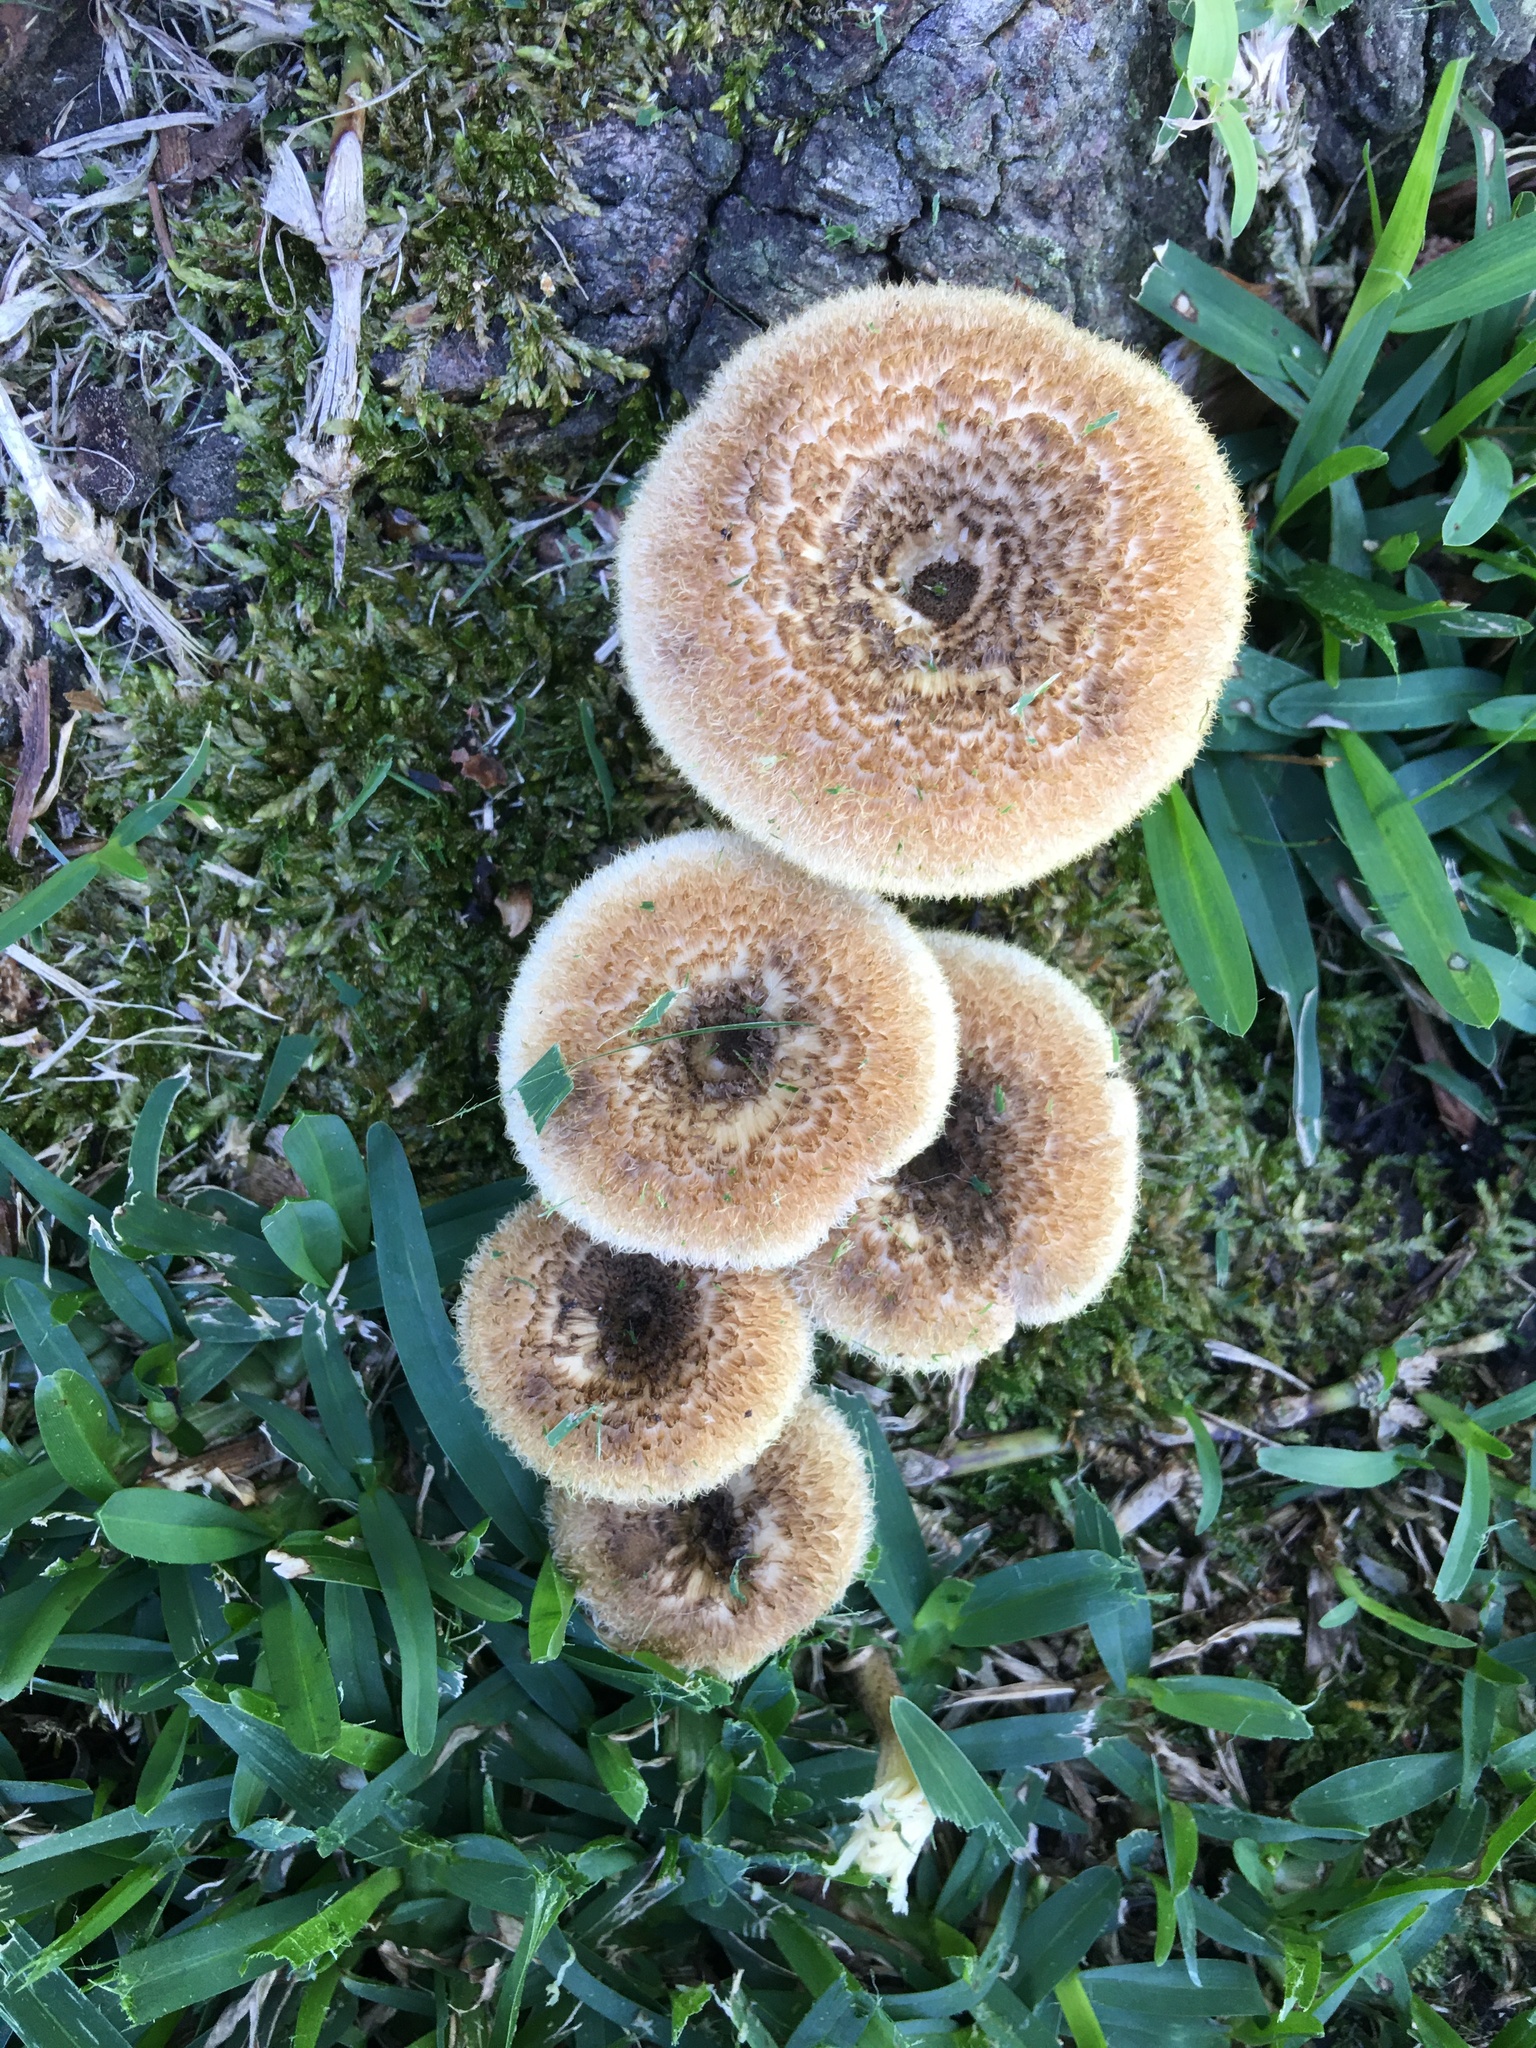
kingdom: Fungi
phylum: Basidiomycota
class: Agaricomycetes
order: Polyporales
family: Polyporaceae
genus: Lentinus
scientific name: Lentinus arcularius
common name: Spring polypore
